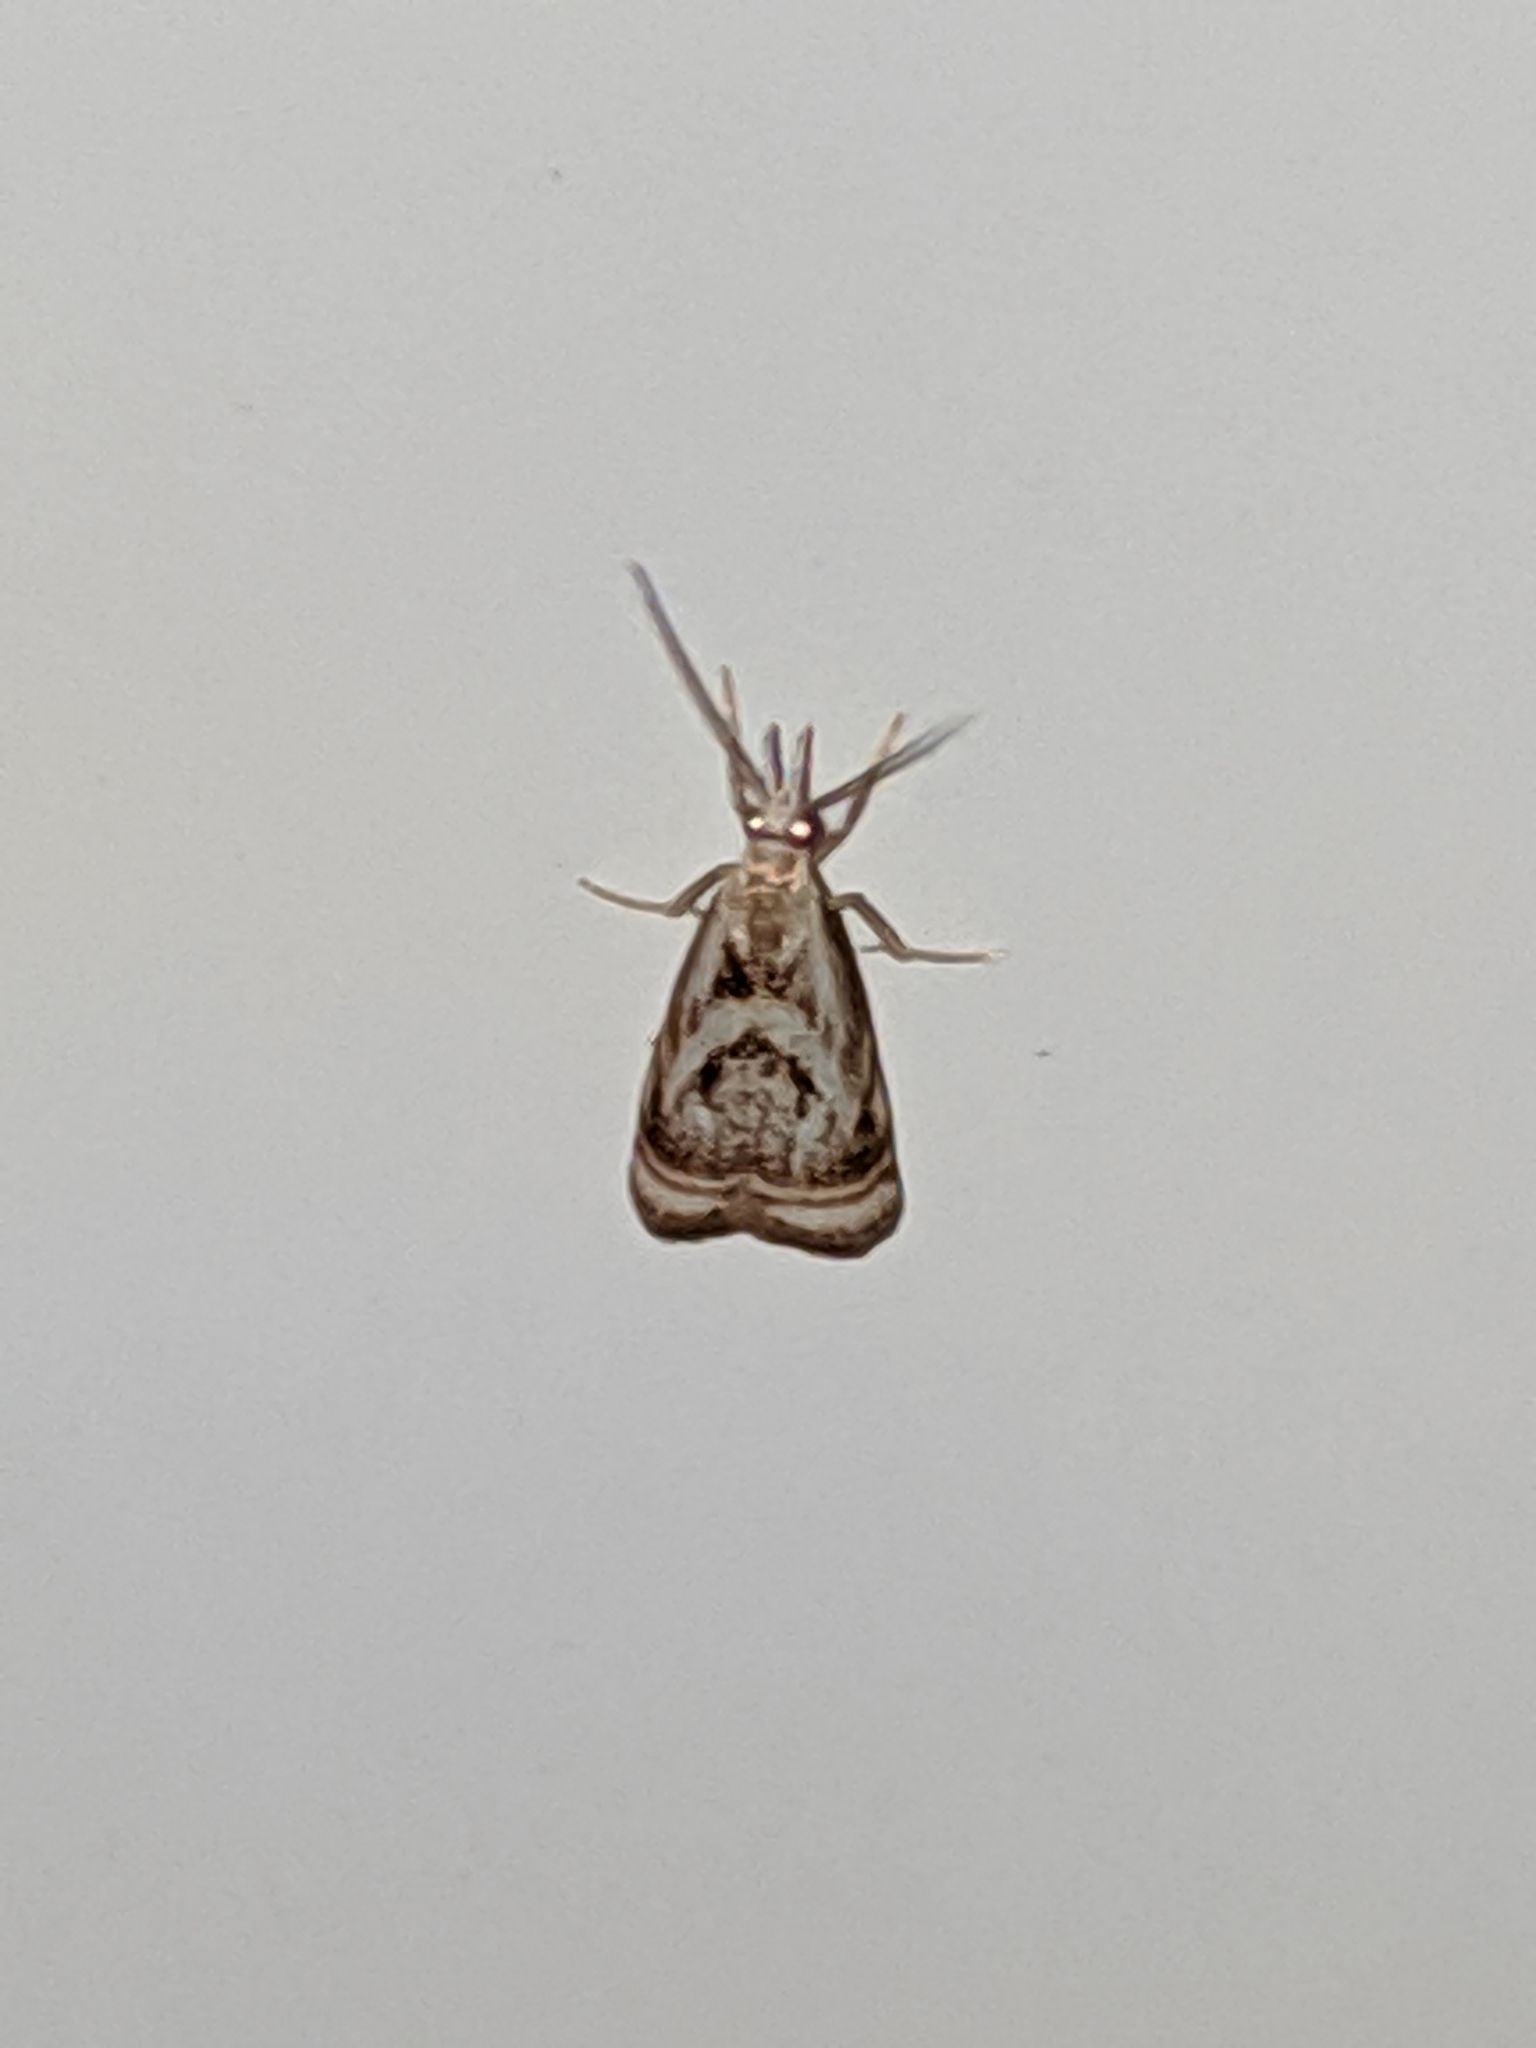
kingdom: Animalia
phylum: Arthropoda
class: Insecta
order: Lepidoptera
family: Crambidae
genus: Microcrambus
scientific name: Microcrambus elegans
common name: Elegant grass-veneer
